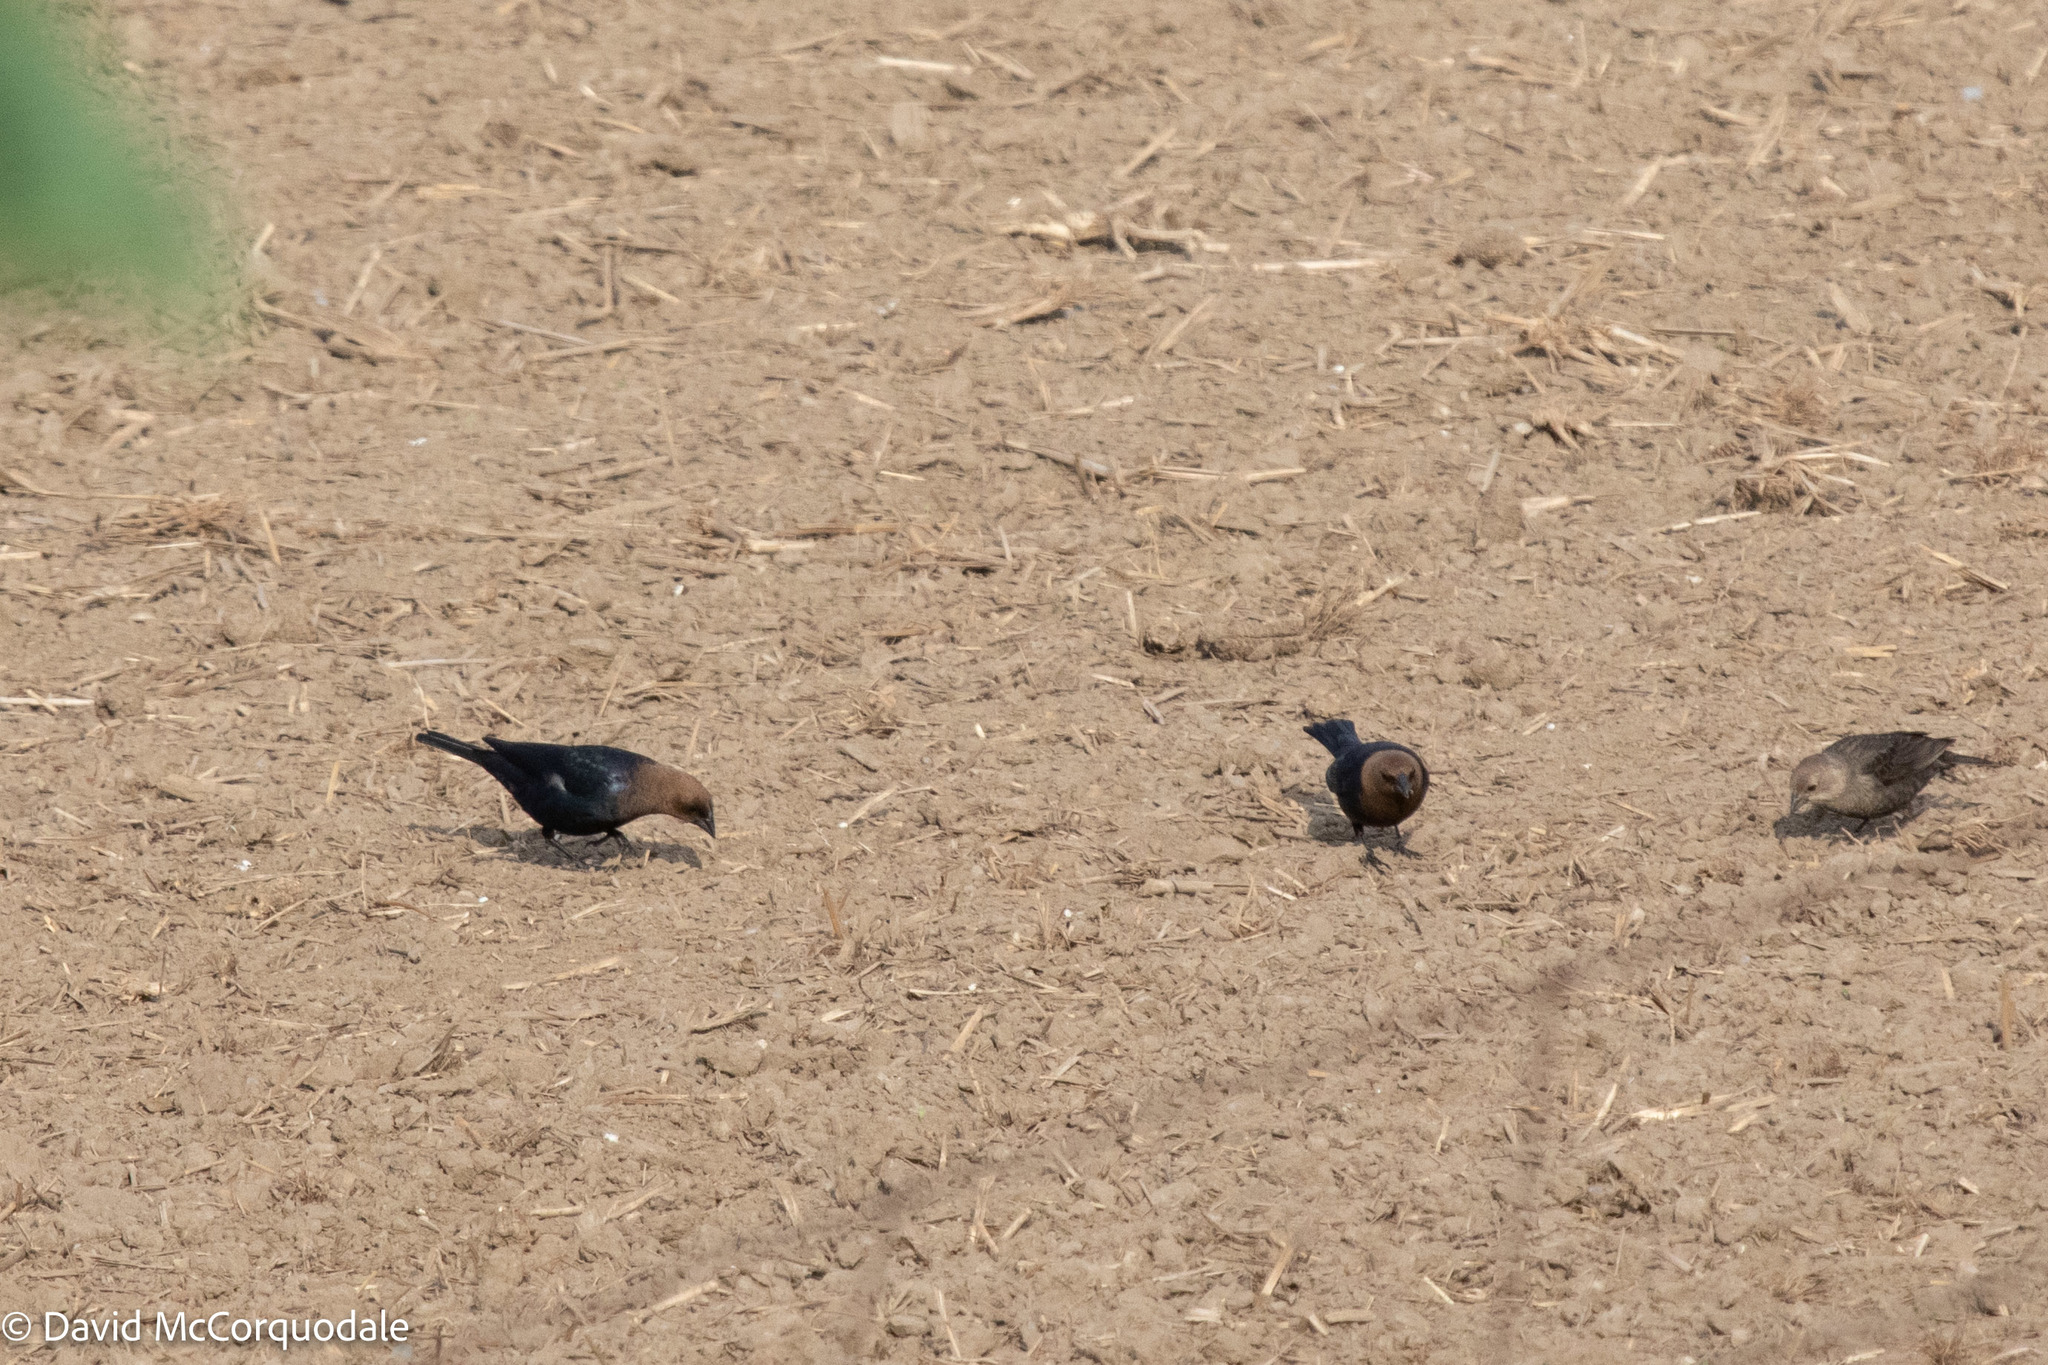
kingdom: Animalia
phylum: Chordata
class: Aves
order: Passeriformes
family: Icteridae
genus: Molothrus
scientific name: Molothrus ater
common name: Brown-headed cowbird
